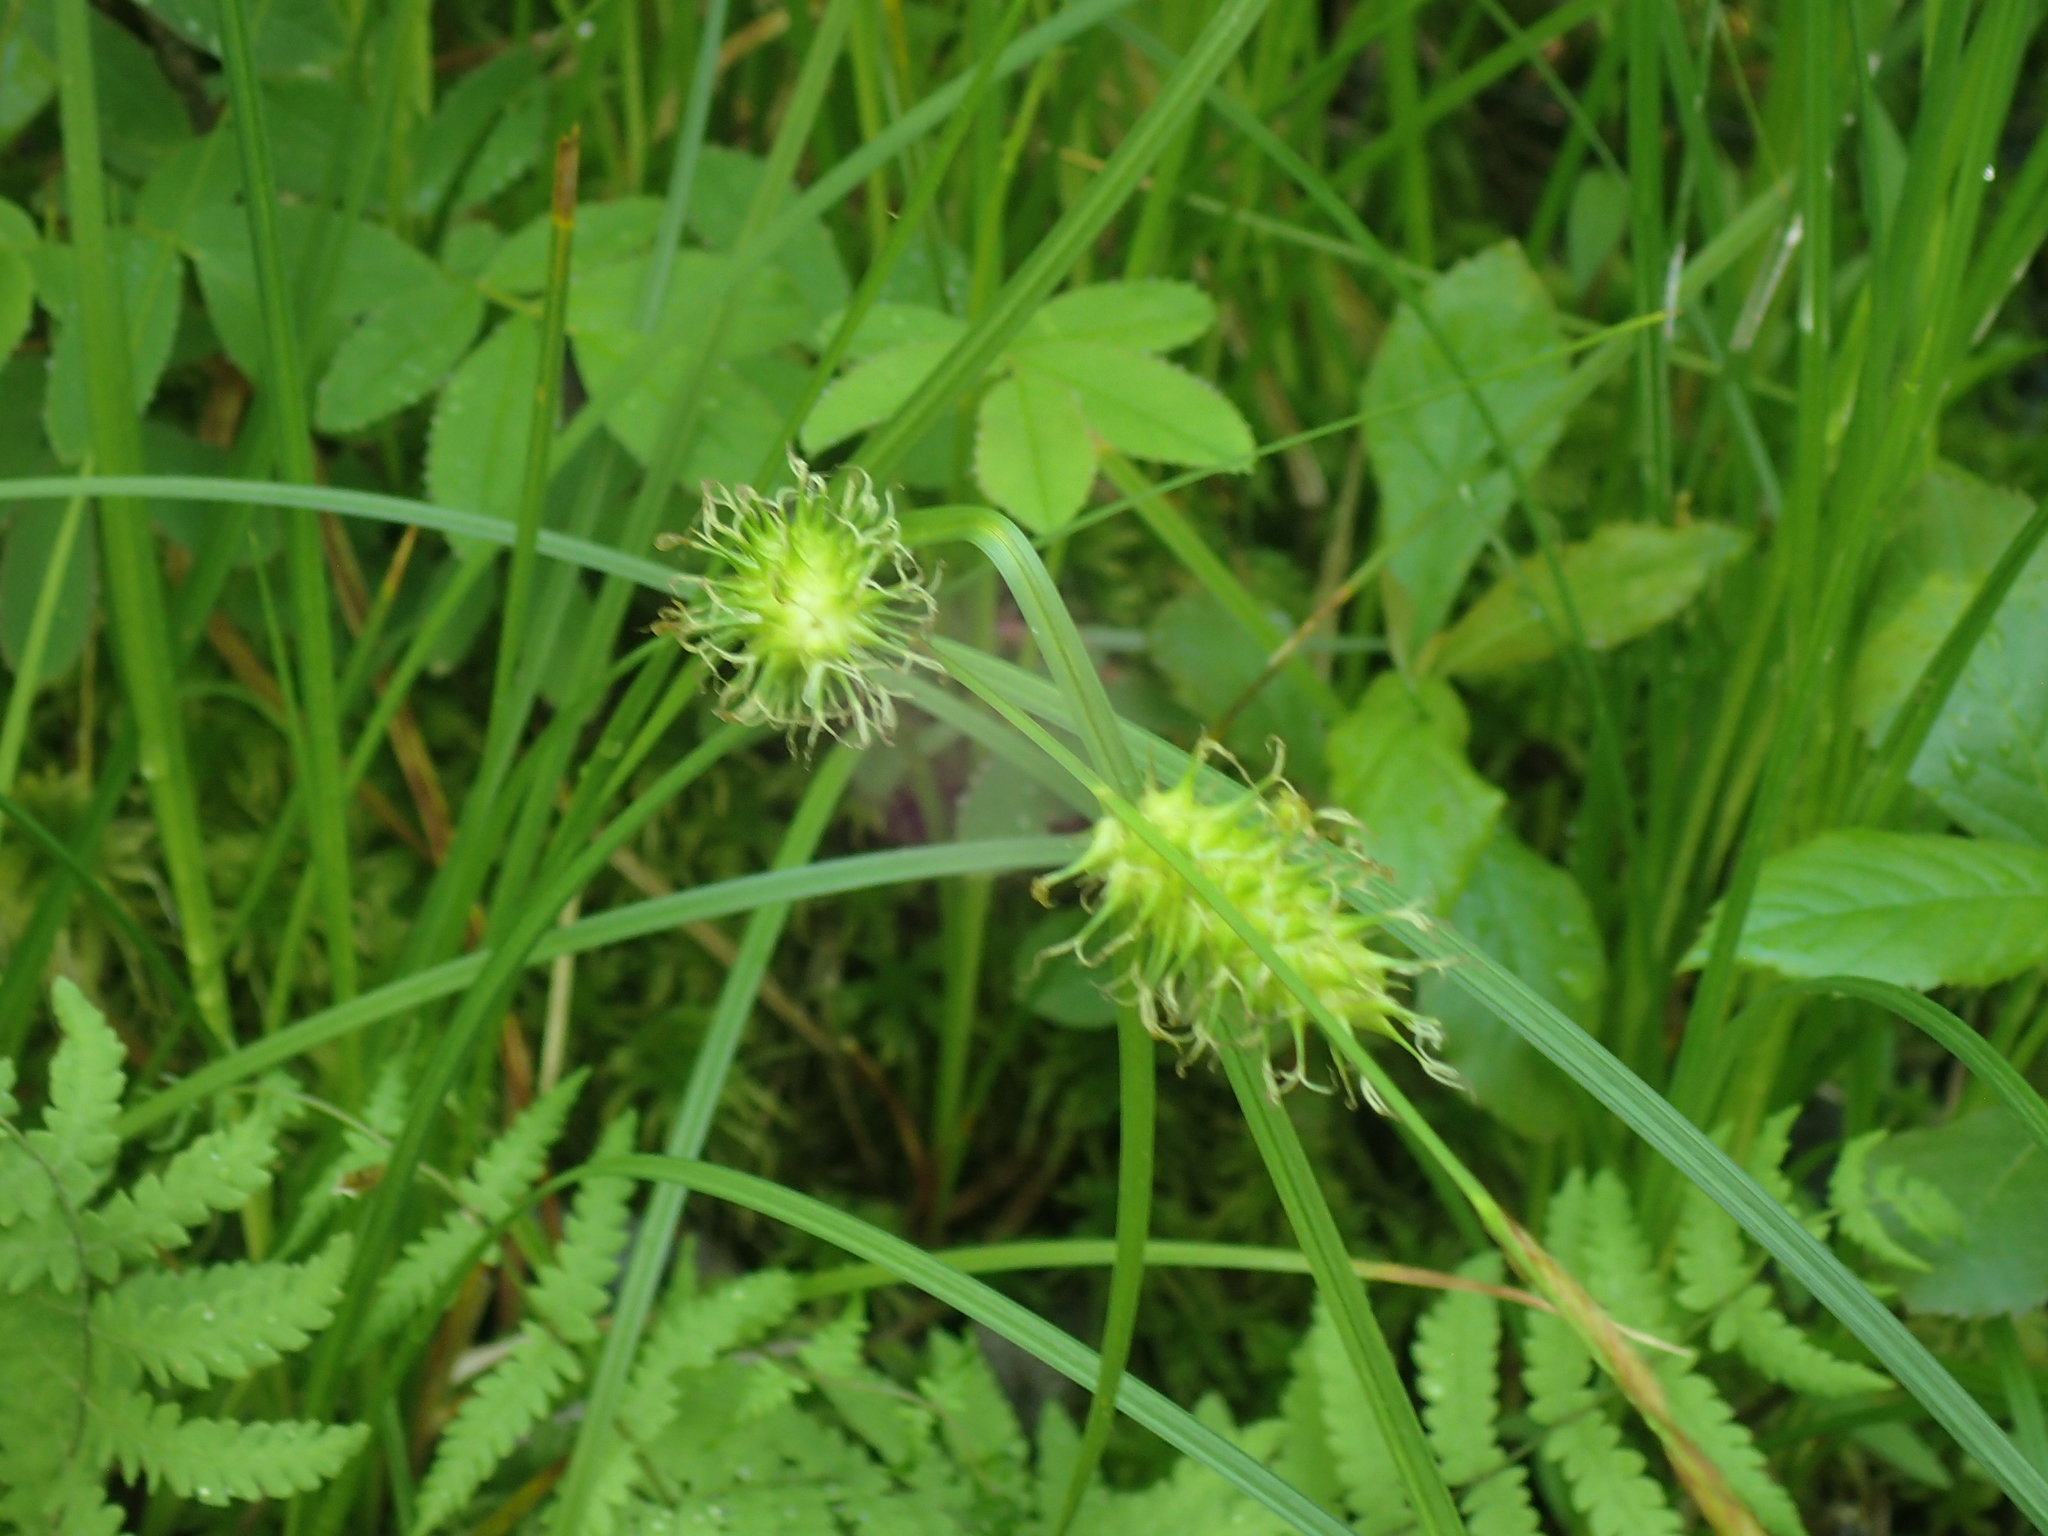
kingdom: Plantae
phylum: Tracheophyta
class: Liliopsida
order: Poales
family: Cyperaceae
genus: Carex
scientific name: Carex bullata
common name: Button sedge
